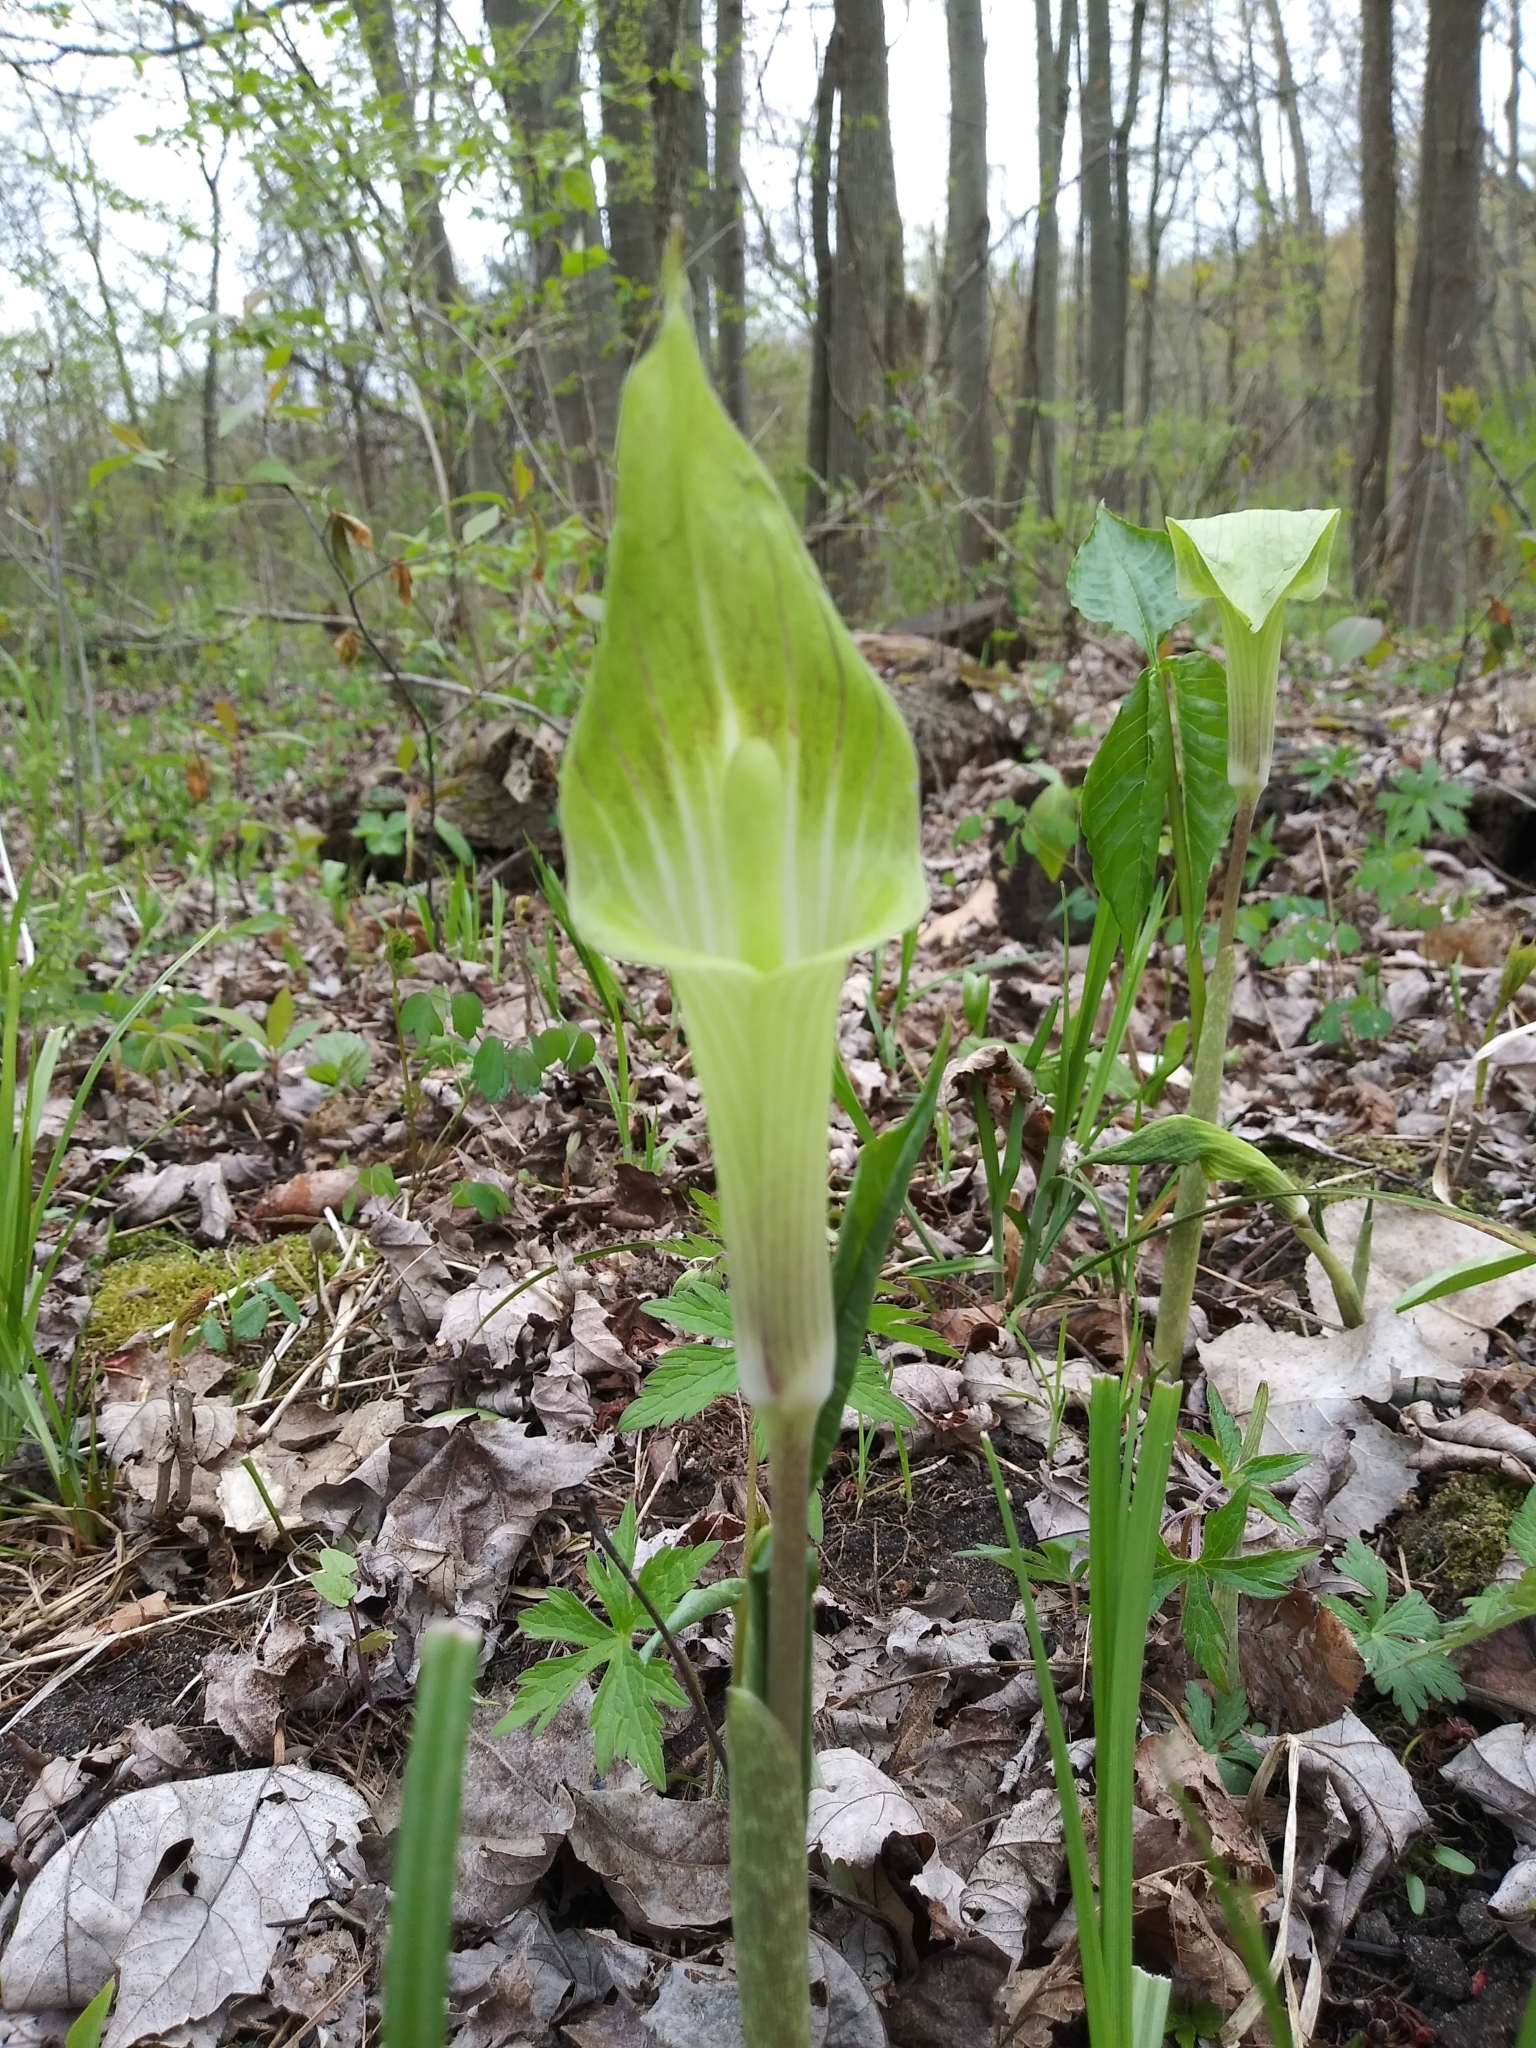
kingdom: Plantae
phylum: Tracheophyta
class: Liliopsida
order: Alismatales
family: Araceae
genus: Arisaema
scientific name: Arisaema triphyllum
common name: Jack-in-the-pulpit
